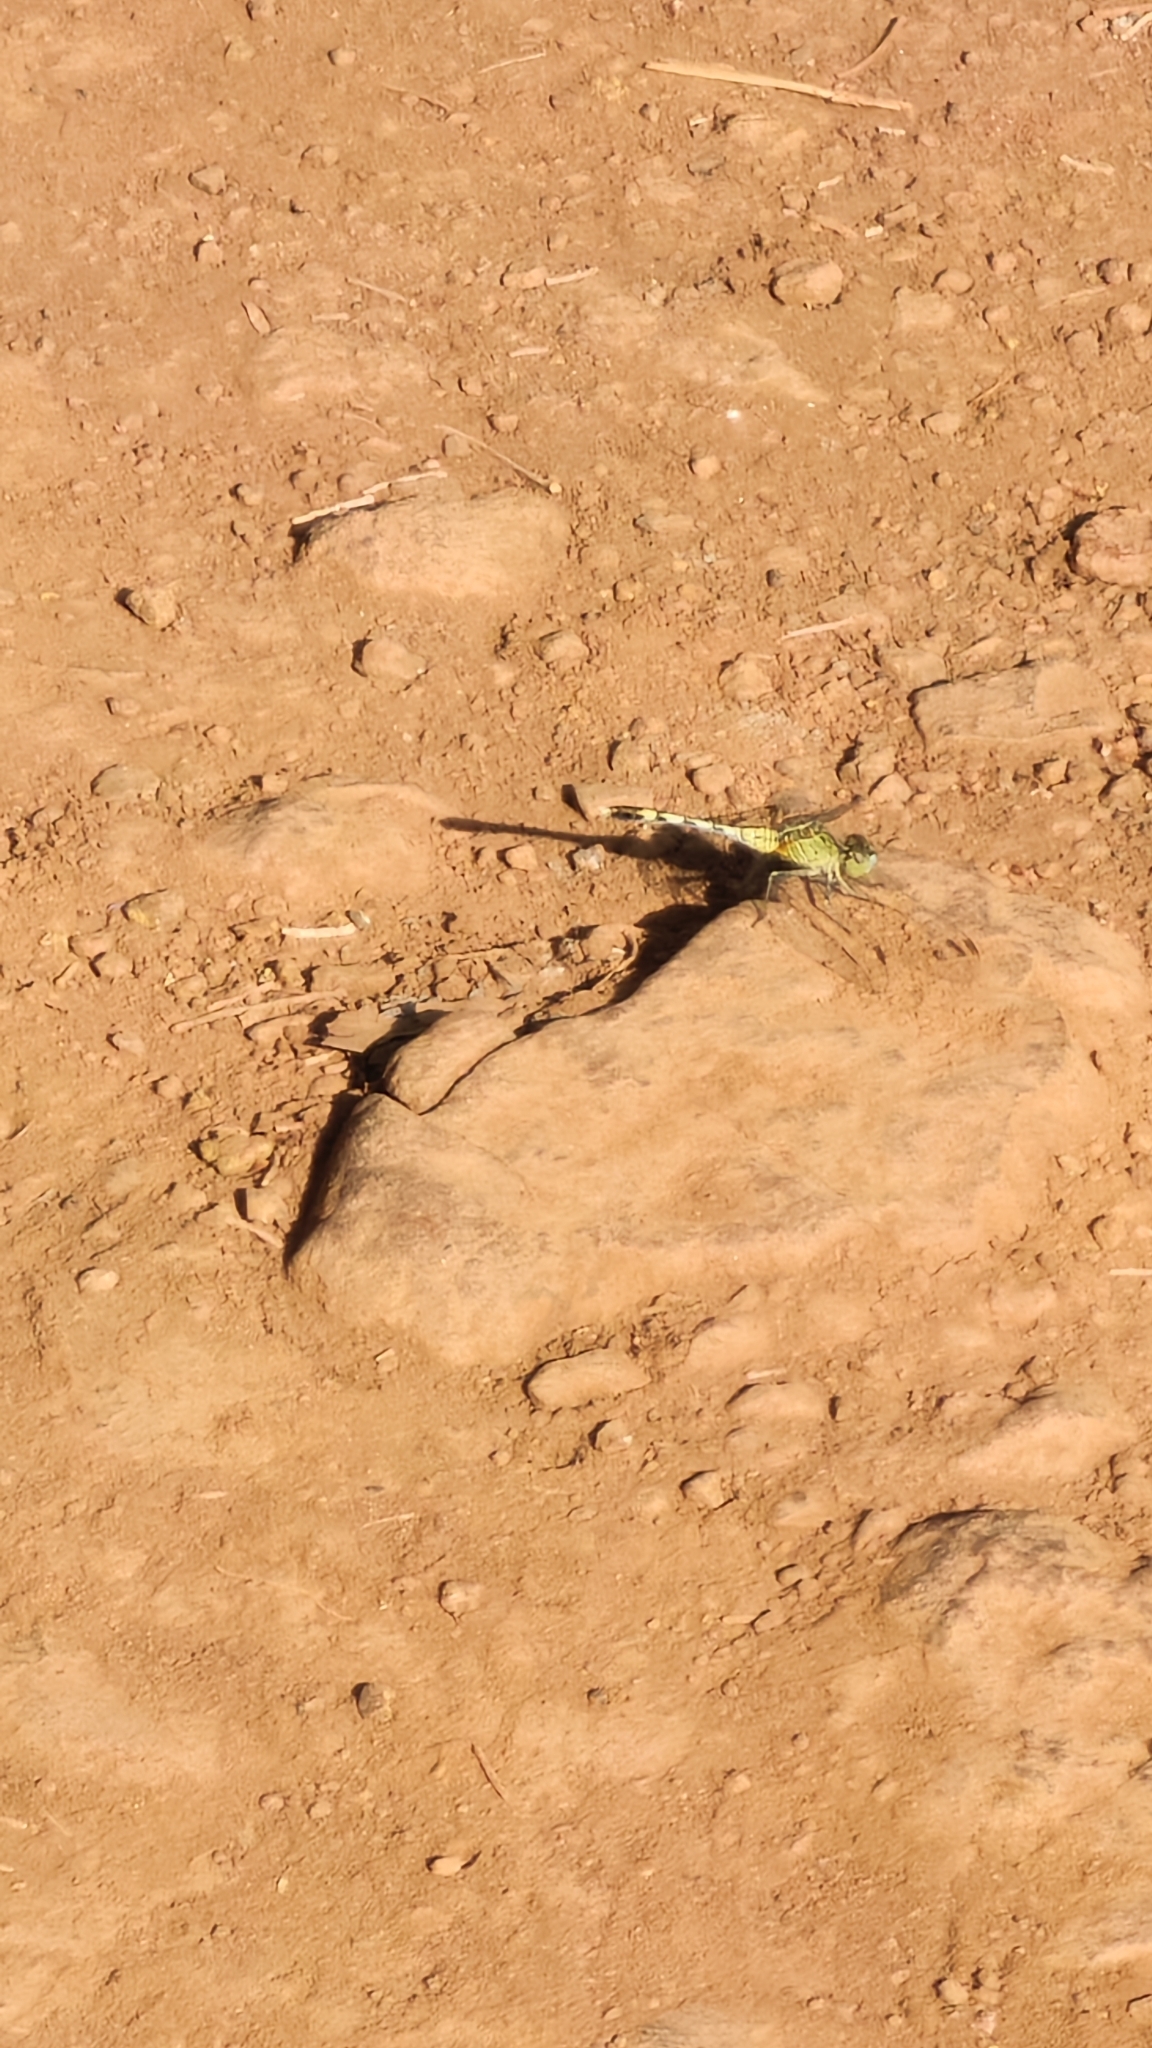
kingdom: Animalia
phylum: Arthropoda
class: Insecta
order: Odonata
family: Libellulidae
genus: Diplacodes
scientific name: Diplacodes trivialis
